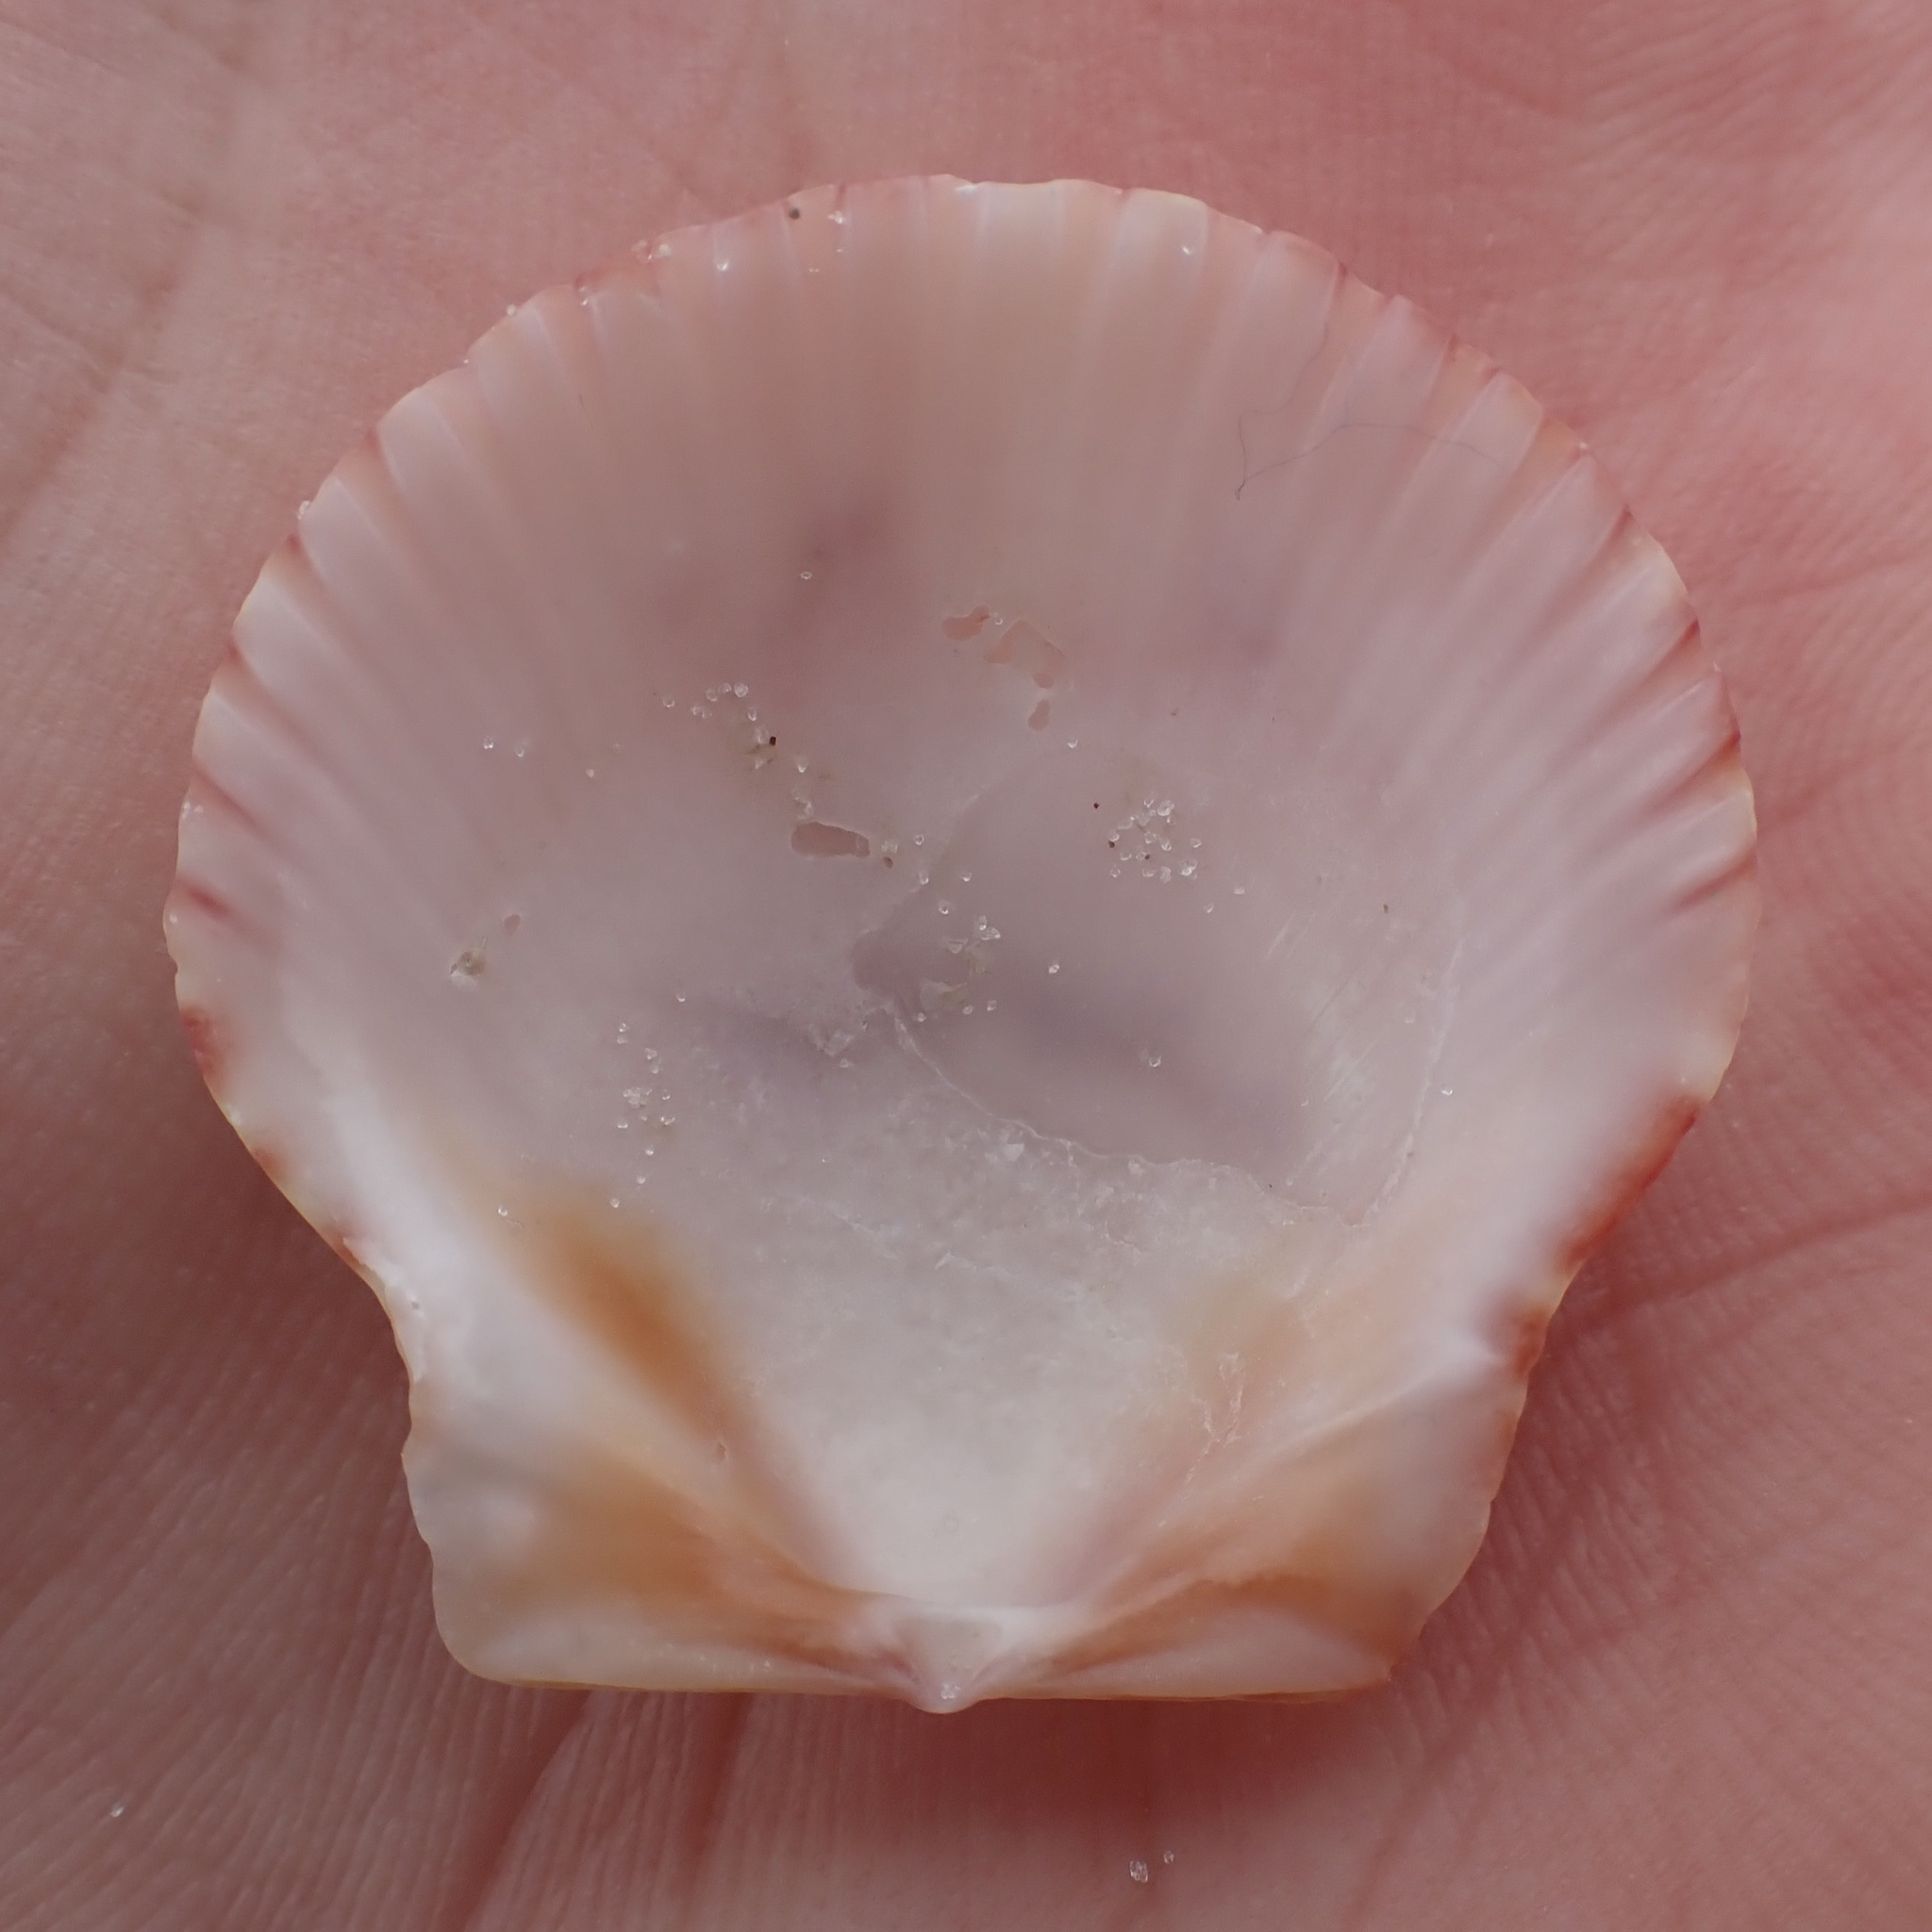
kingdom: Animalia
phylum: Mollusca
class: Bivalvia
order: Pectinida
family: Pectinidae
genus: Argopecten
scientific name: Argopecten gibbus
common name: Atlantic calico scallop
